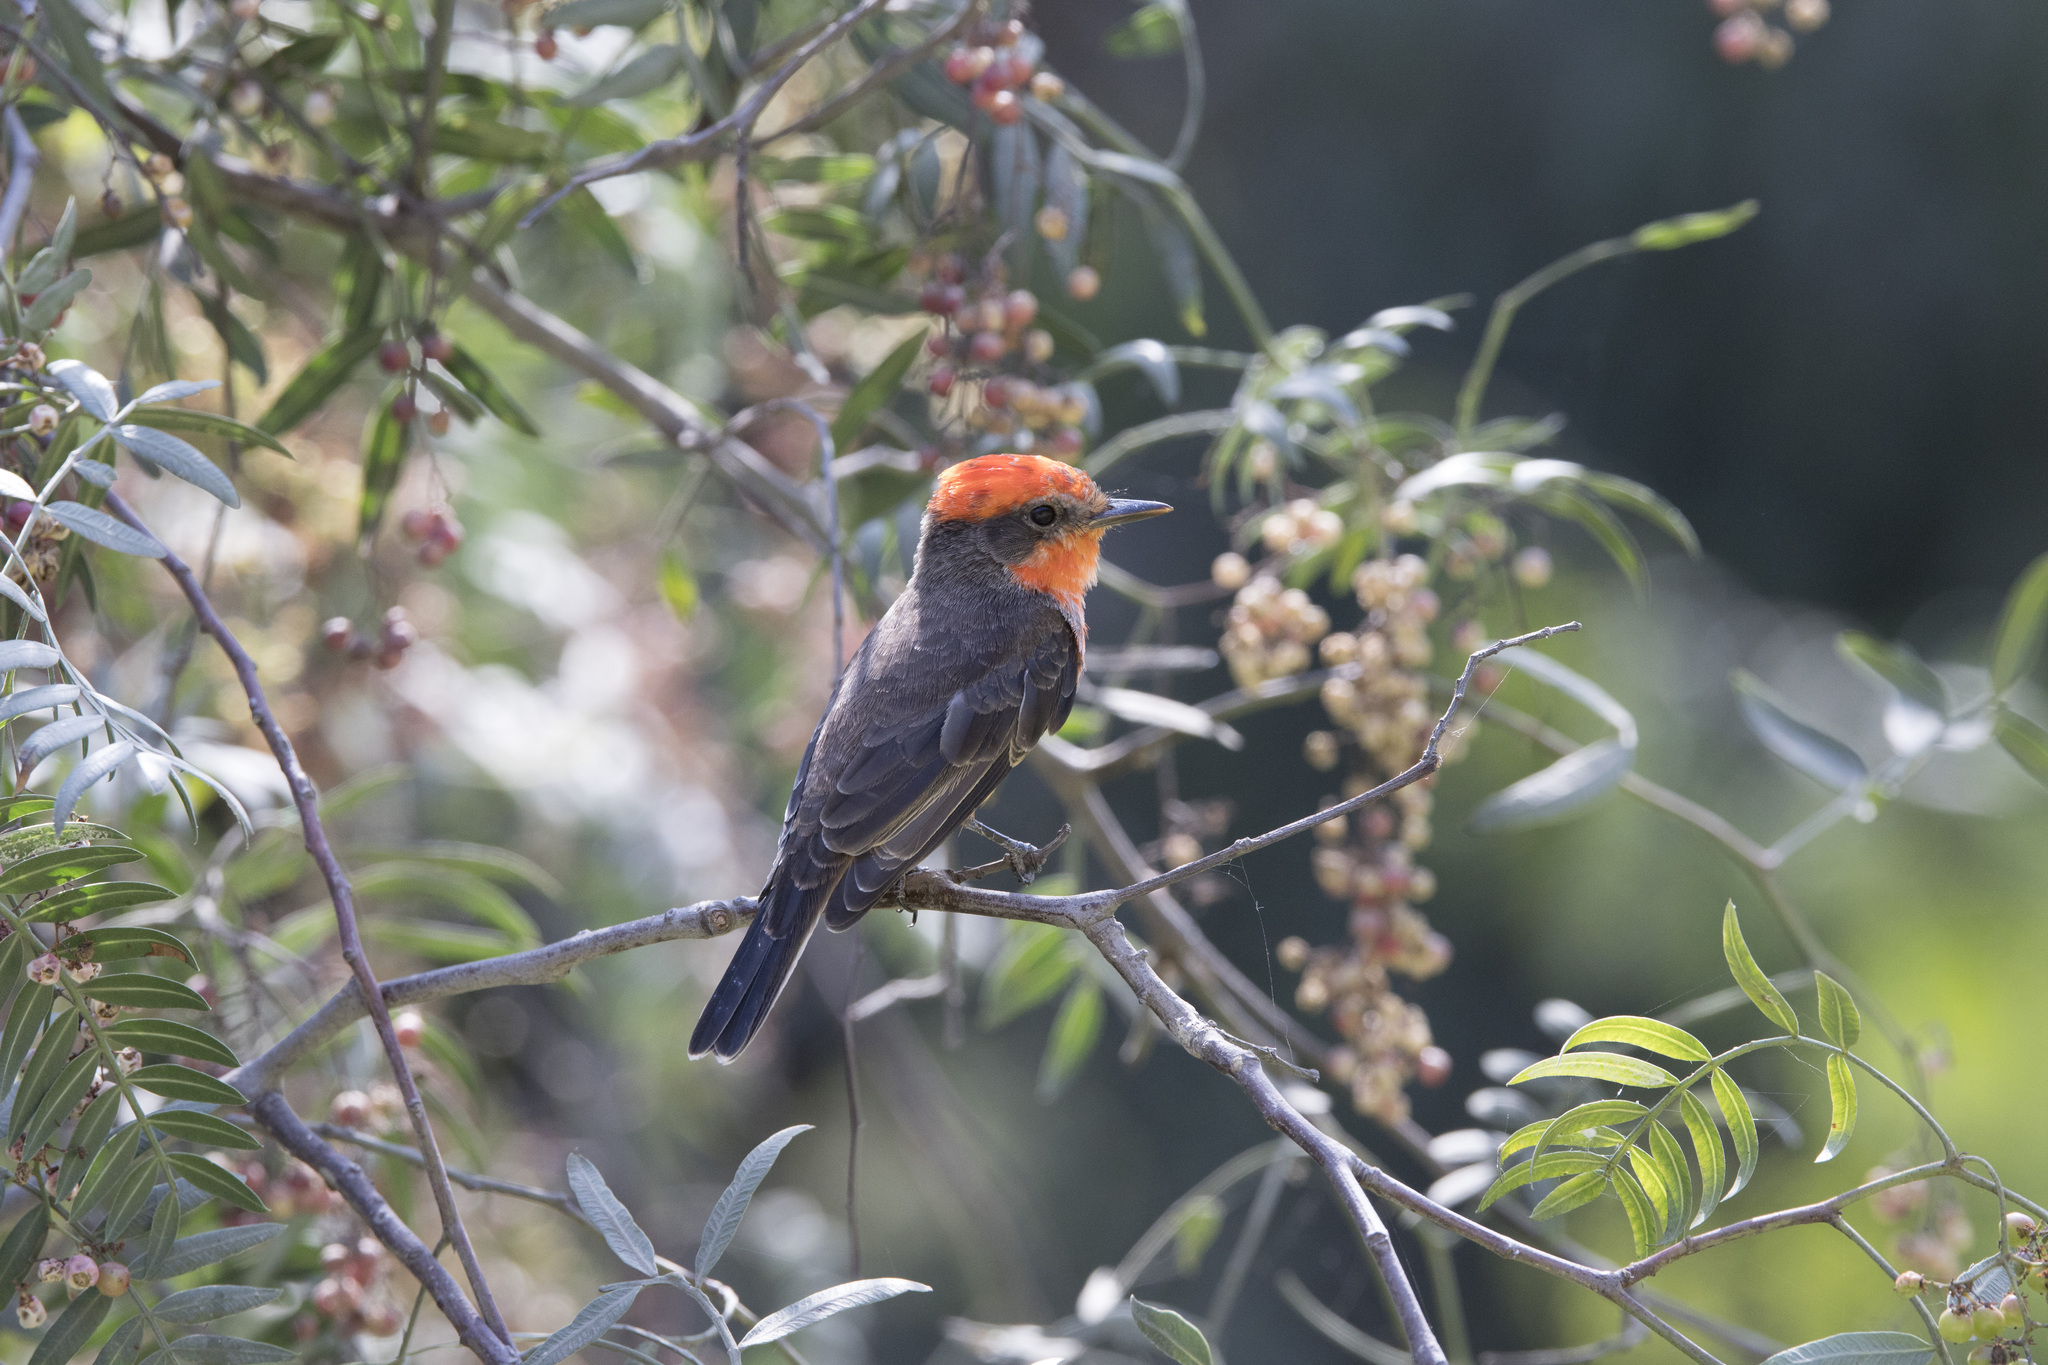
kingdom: Animalia
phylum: Chordata
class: Aves
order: Passeriformes
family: Tyrannidae
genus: Pyrocephalus
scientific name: Pyrocephalus rubinus
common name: Vermilion flycatcher
